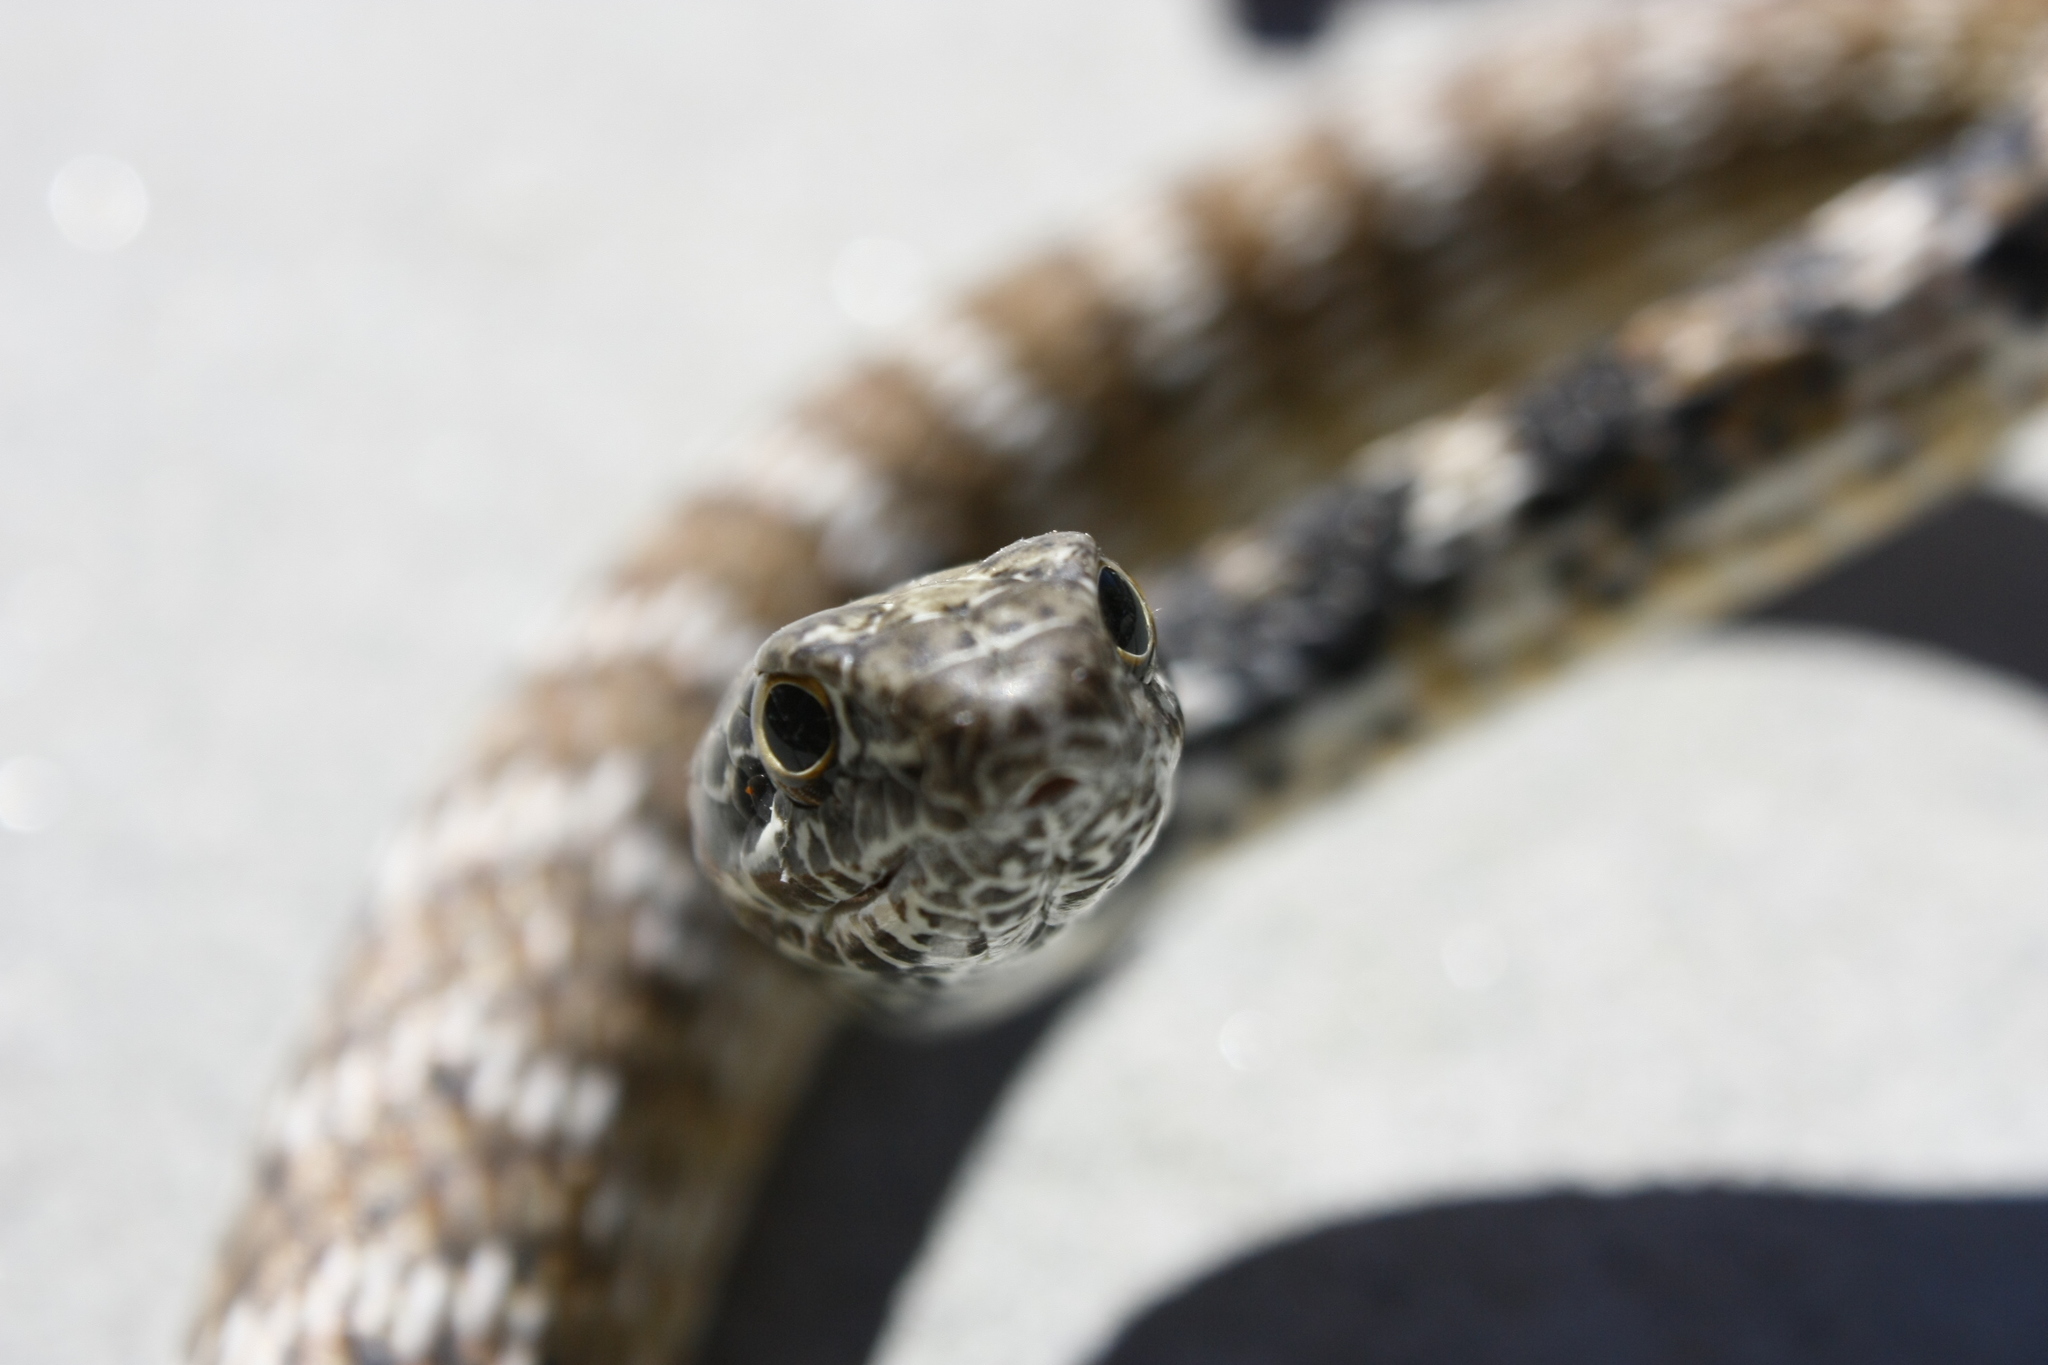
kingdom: Animalia
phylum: Chordata
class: Squamata
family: Colubridae
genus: Masticophis
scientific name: Masticophis flagellum
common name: Coachwhip
